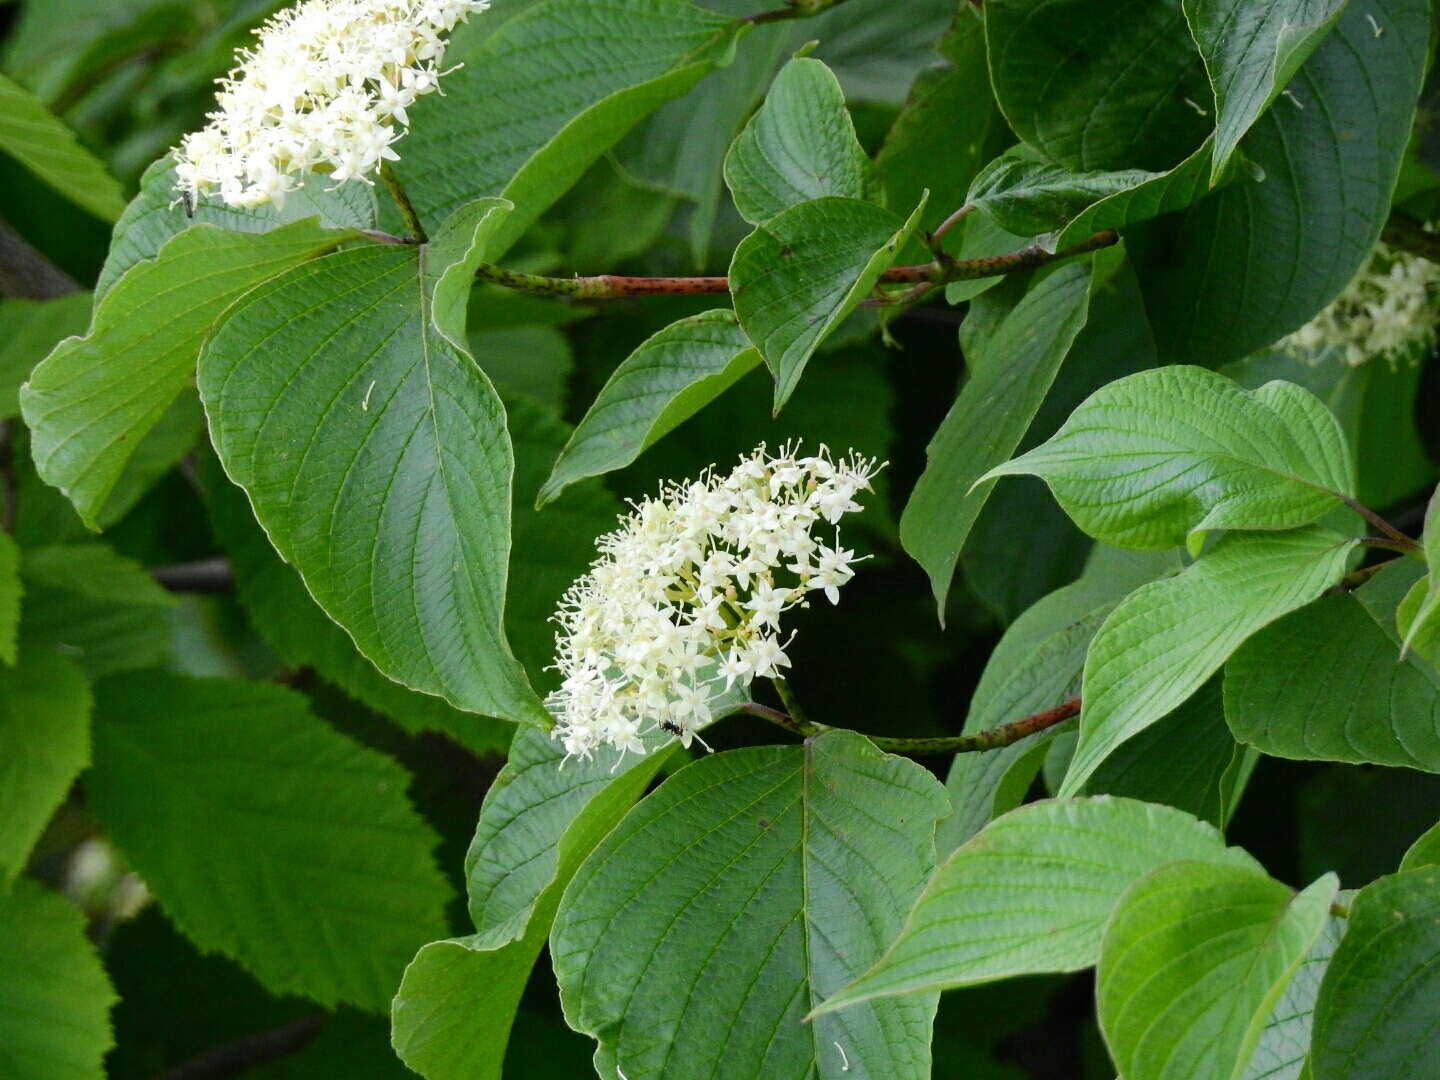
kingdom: Plantae
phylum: Tracheophyta
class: Magnoliopsida
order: Cornales
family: Cornaceae
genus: Cornus
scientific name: Cornus sericea
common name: Red-osier dogwood
